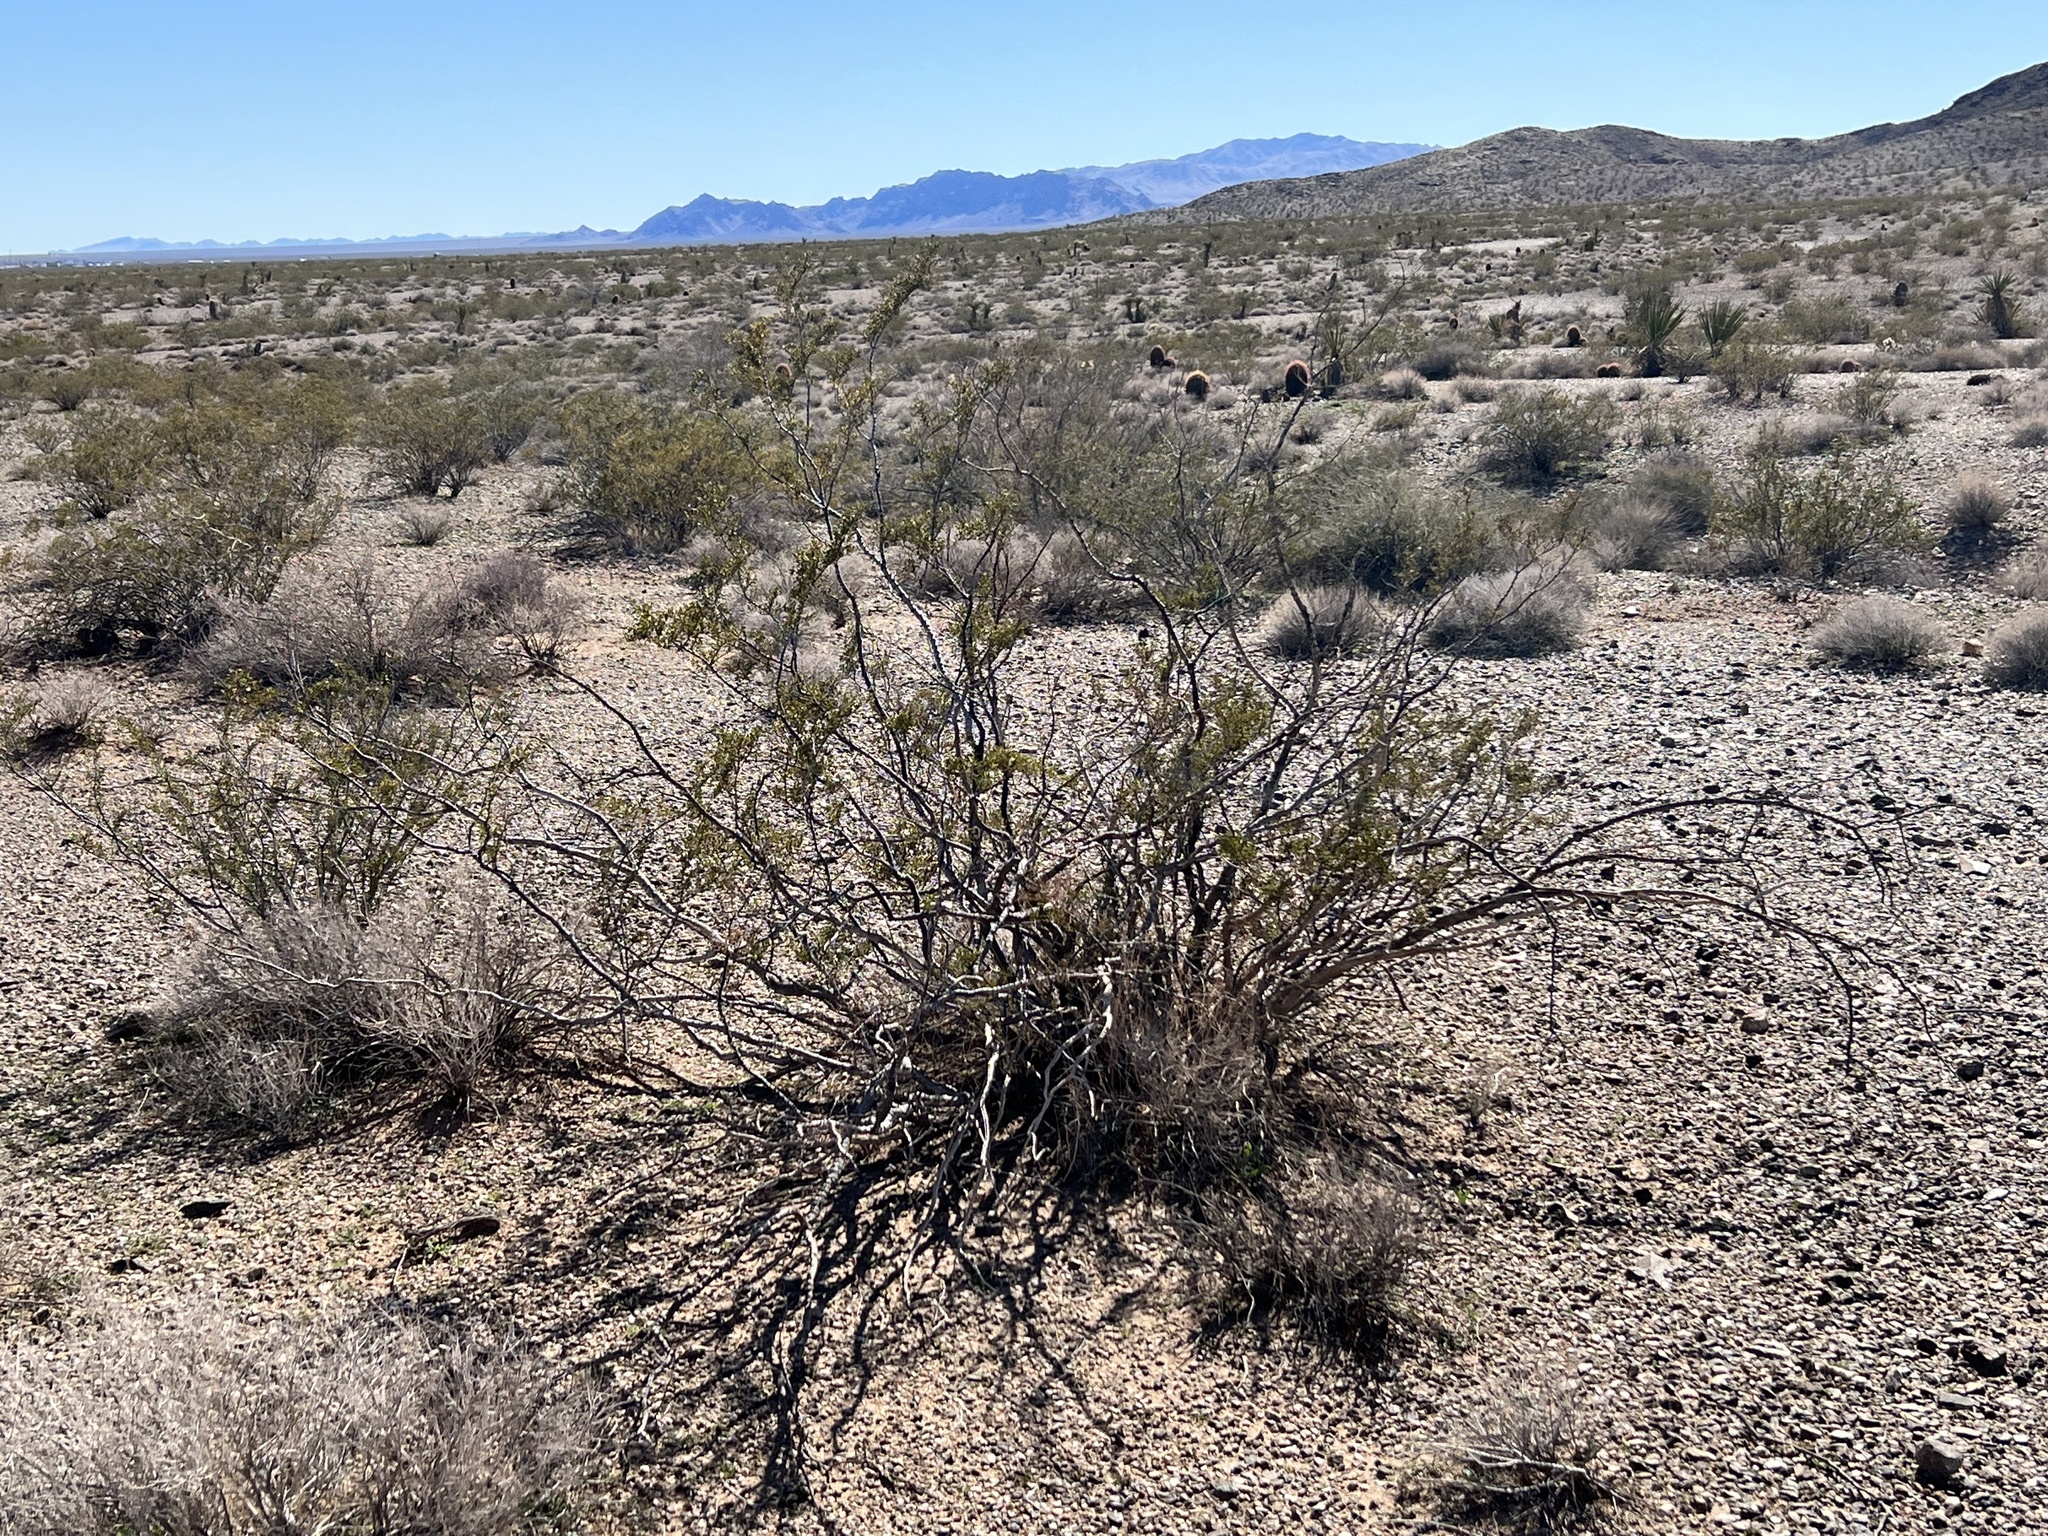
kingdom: Plantae
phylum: Tracheophyta
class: Magnoliopsida
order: Zygophyllales
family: Zygophyllaceae
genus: Larrea
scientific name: Larrea tridentata
